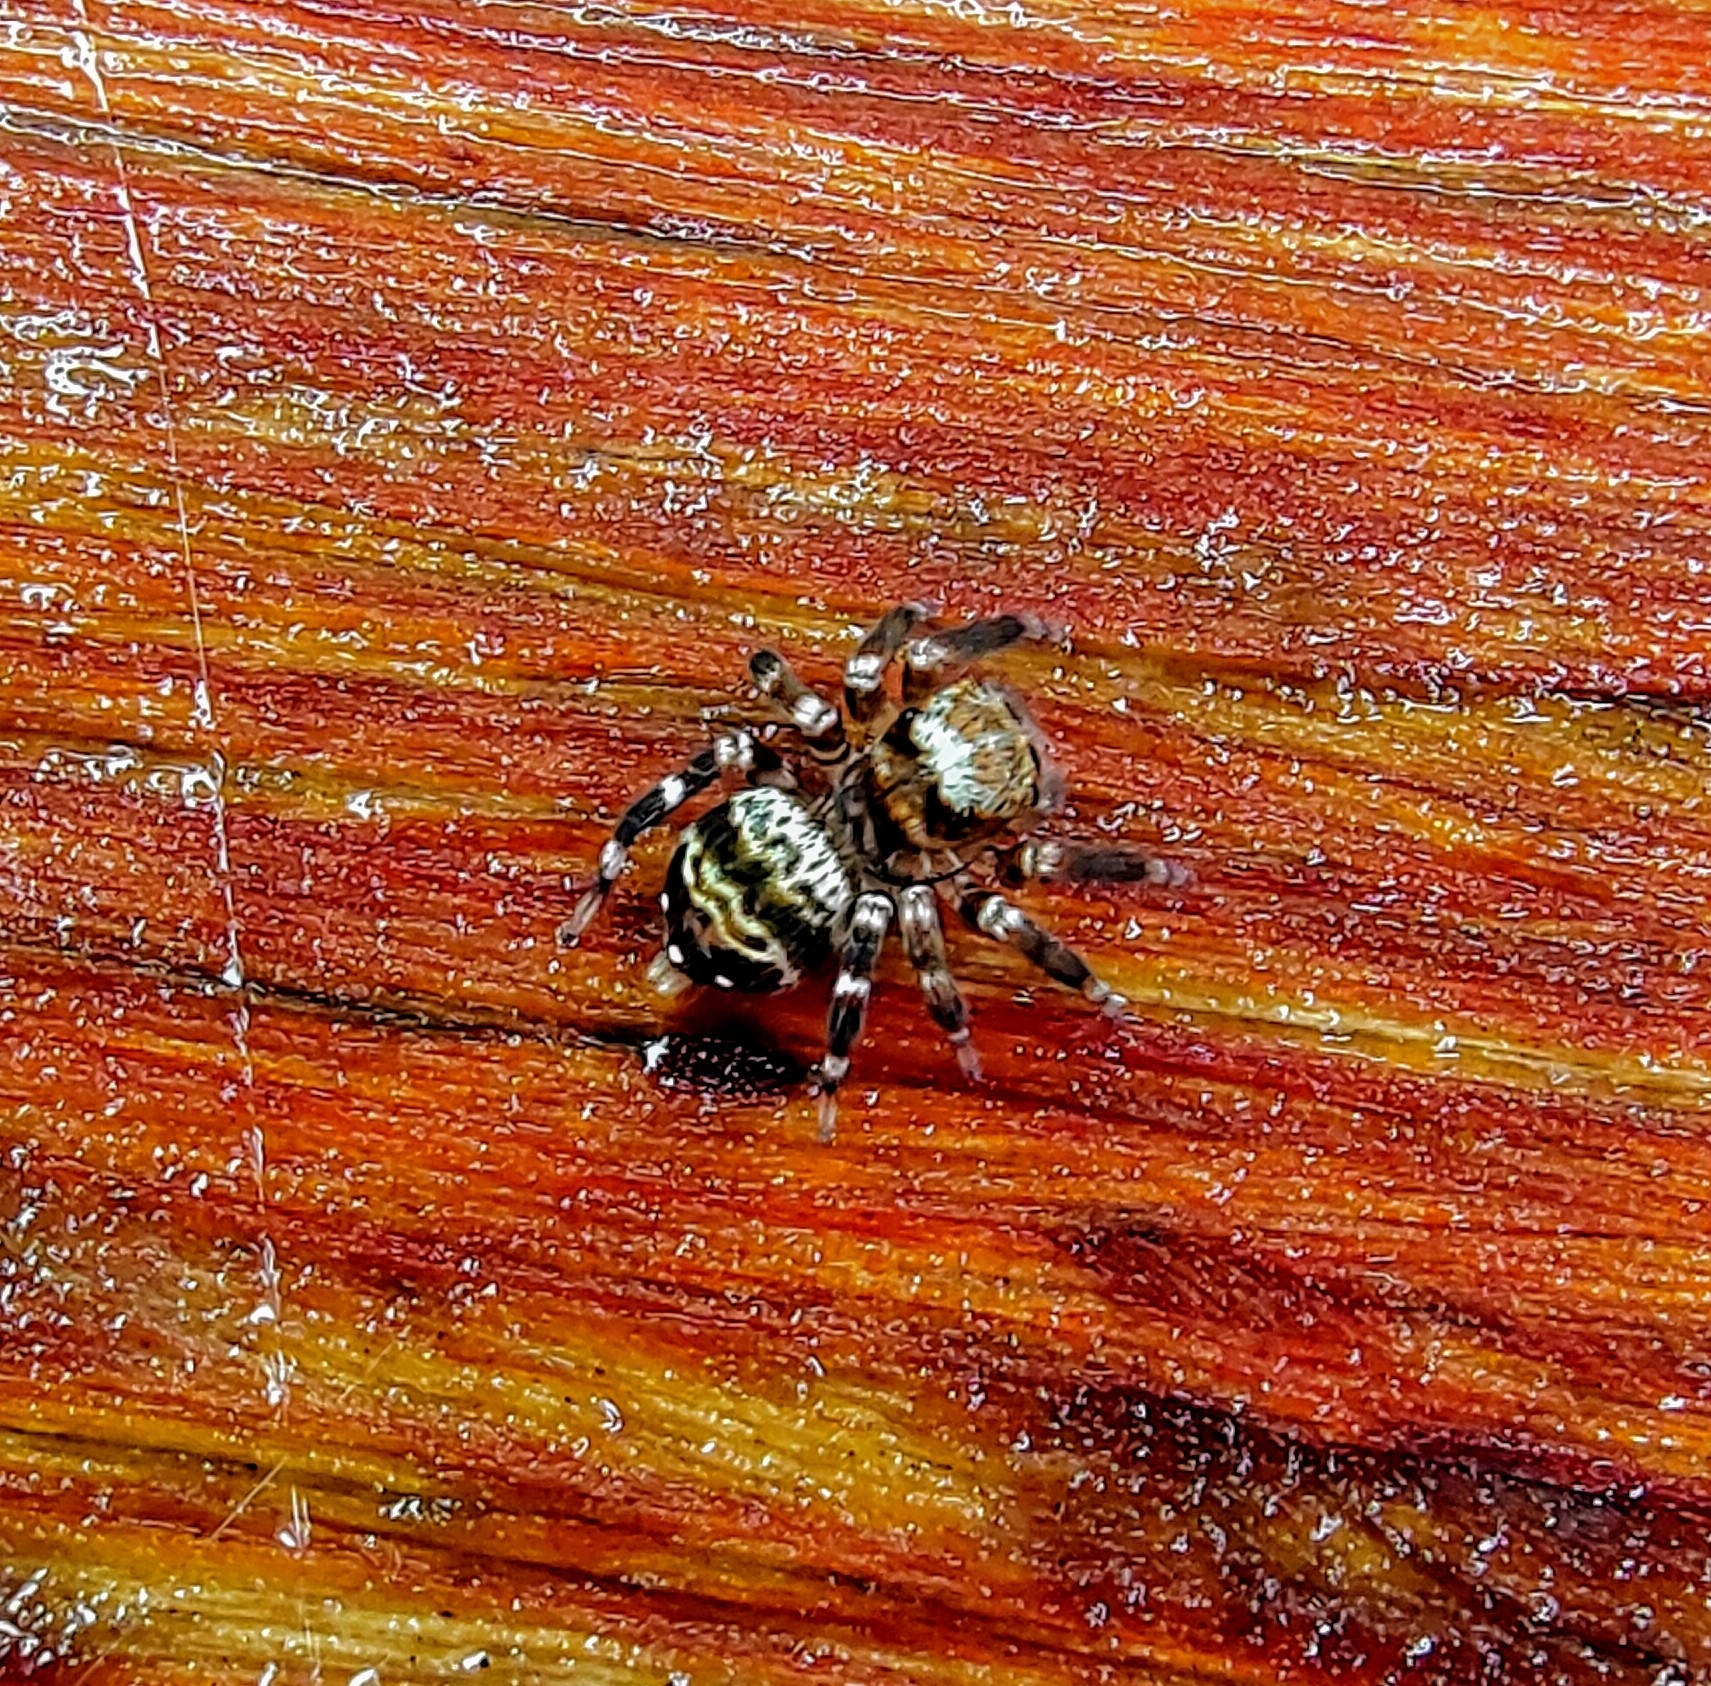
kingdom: Animalia
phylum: Arthropoda
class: Arachnida
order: Araneae
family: Salticidae
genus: Thorelliola
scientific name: Thorelliola ensifera
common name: Jumping spider
